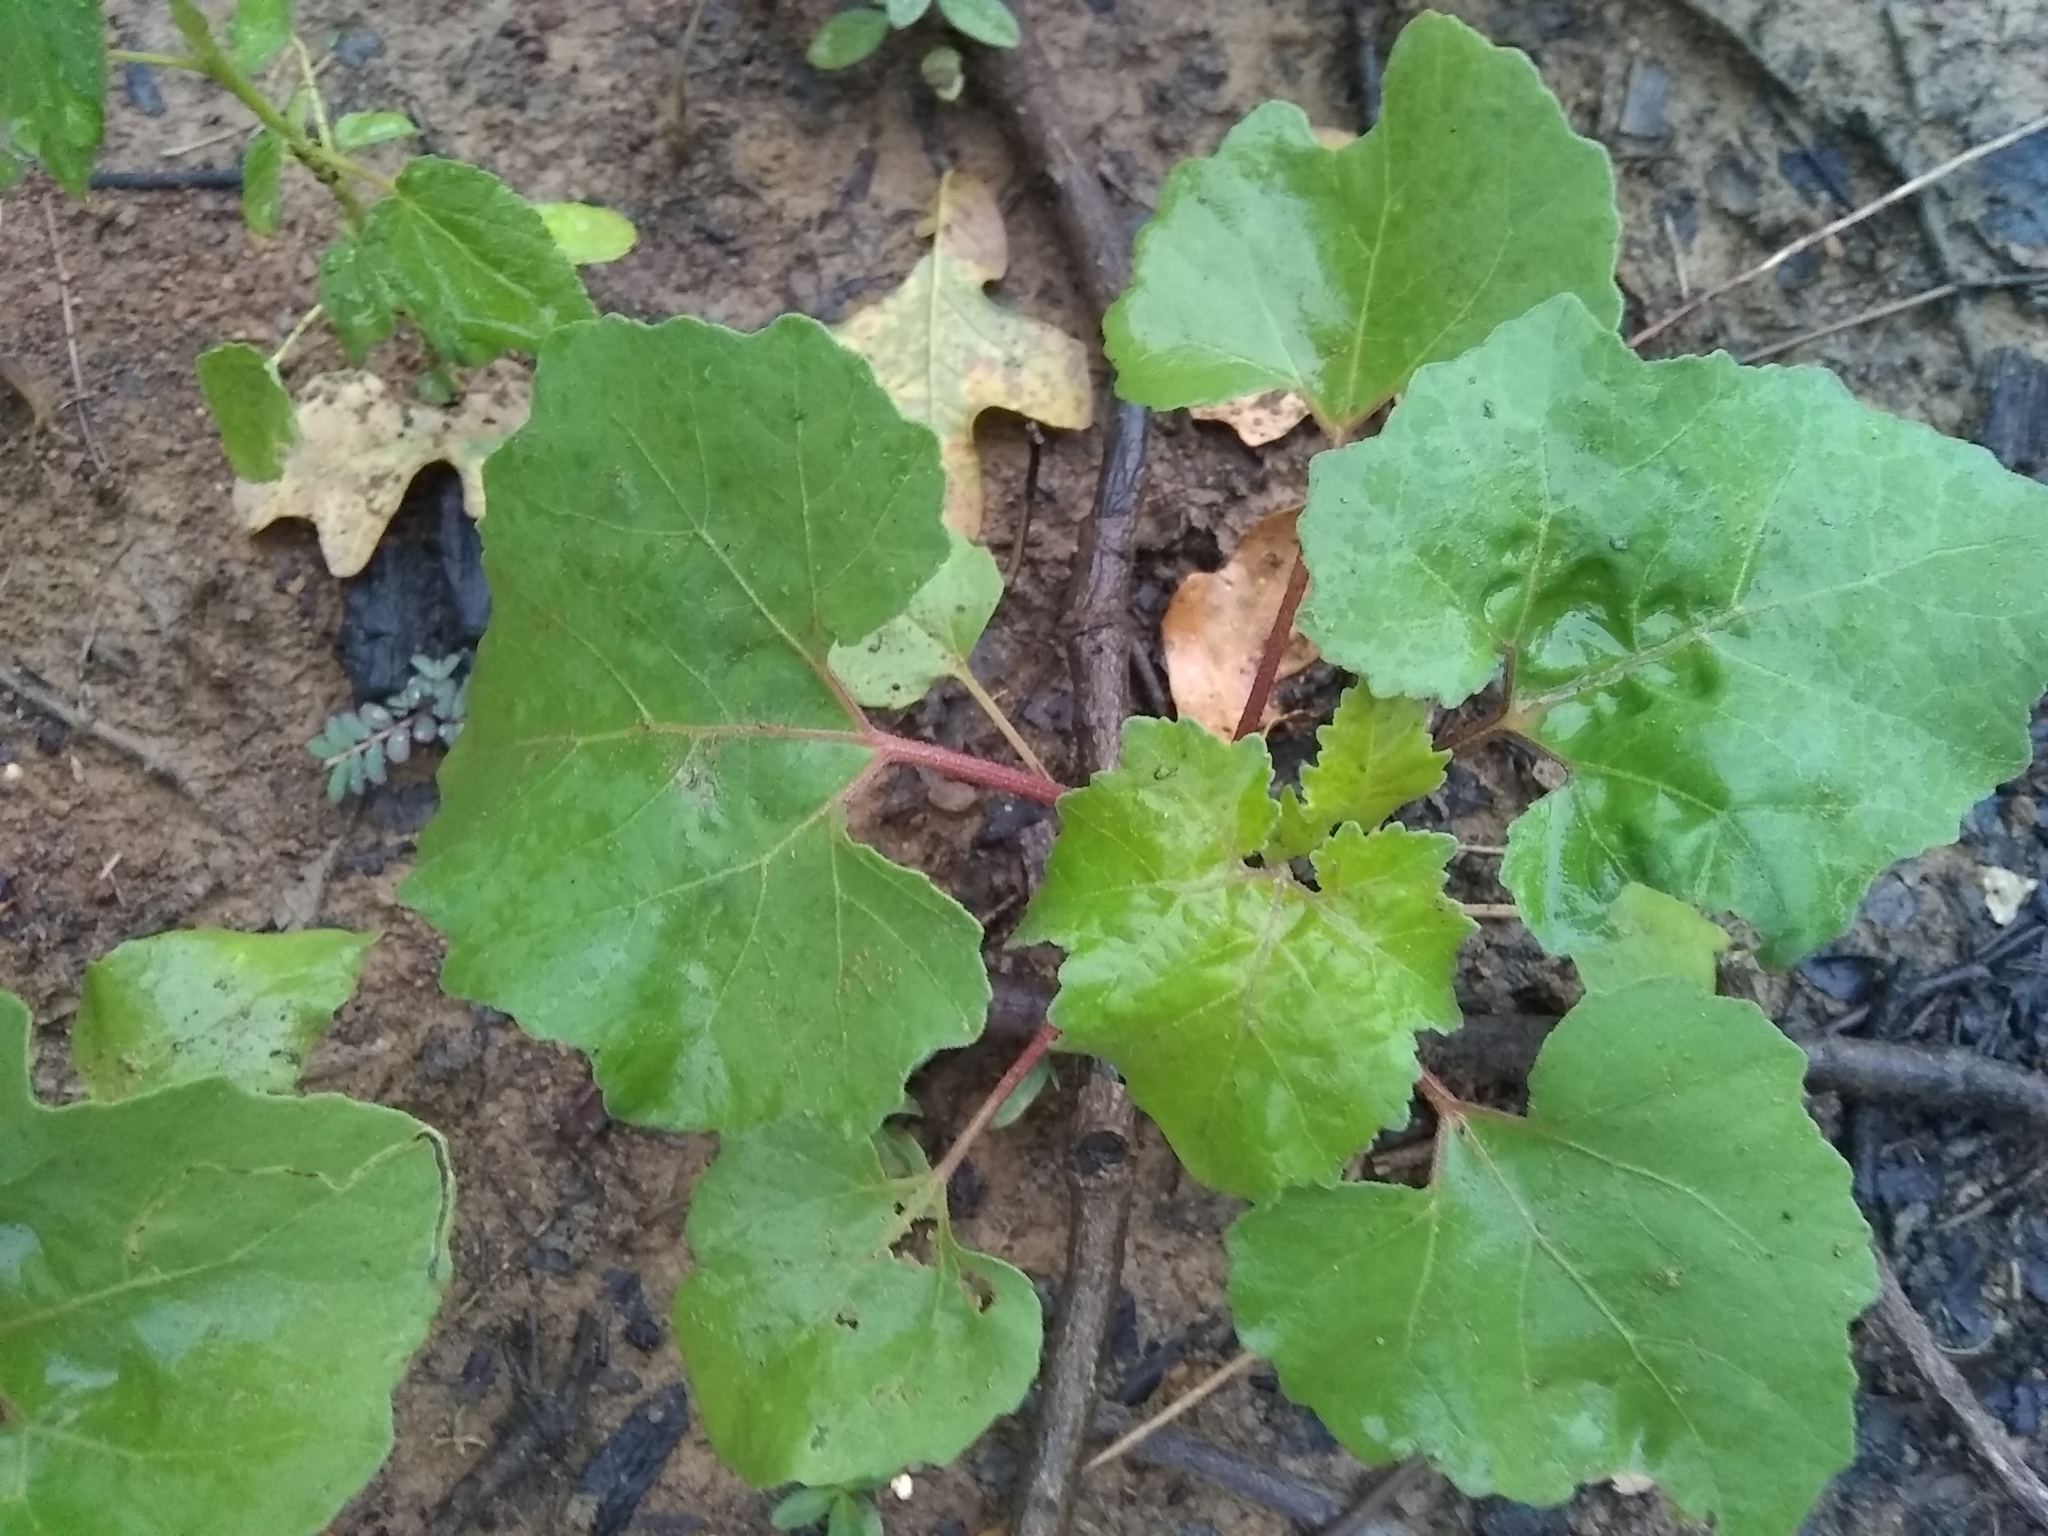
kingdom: Plantae
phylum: Tracheophyta
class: Magnoliopsida
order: Asterales
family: Asteraceae
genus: Xanthium
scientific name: Xanthium strumarium
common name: Rough cocklebur
